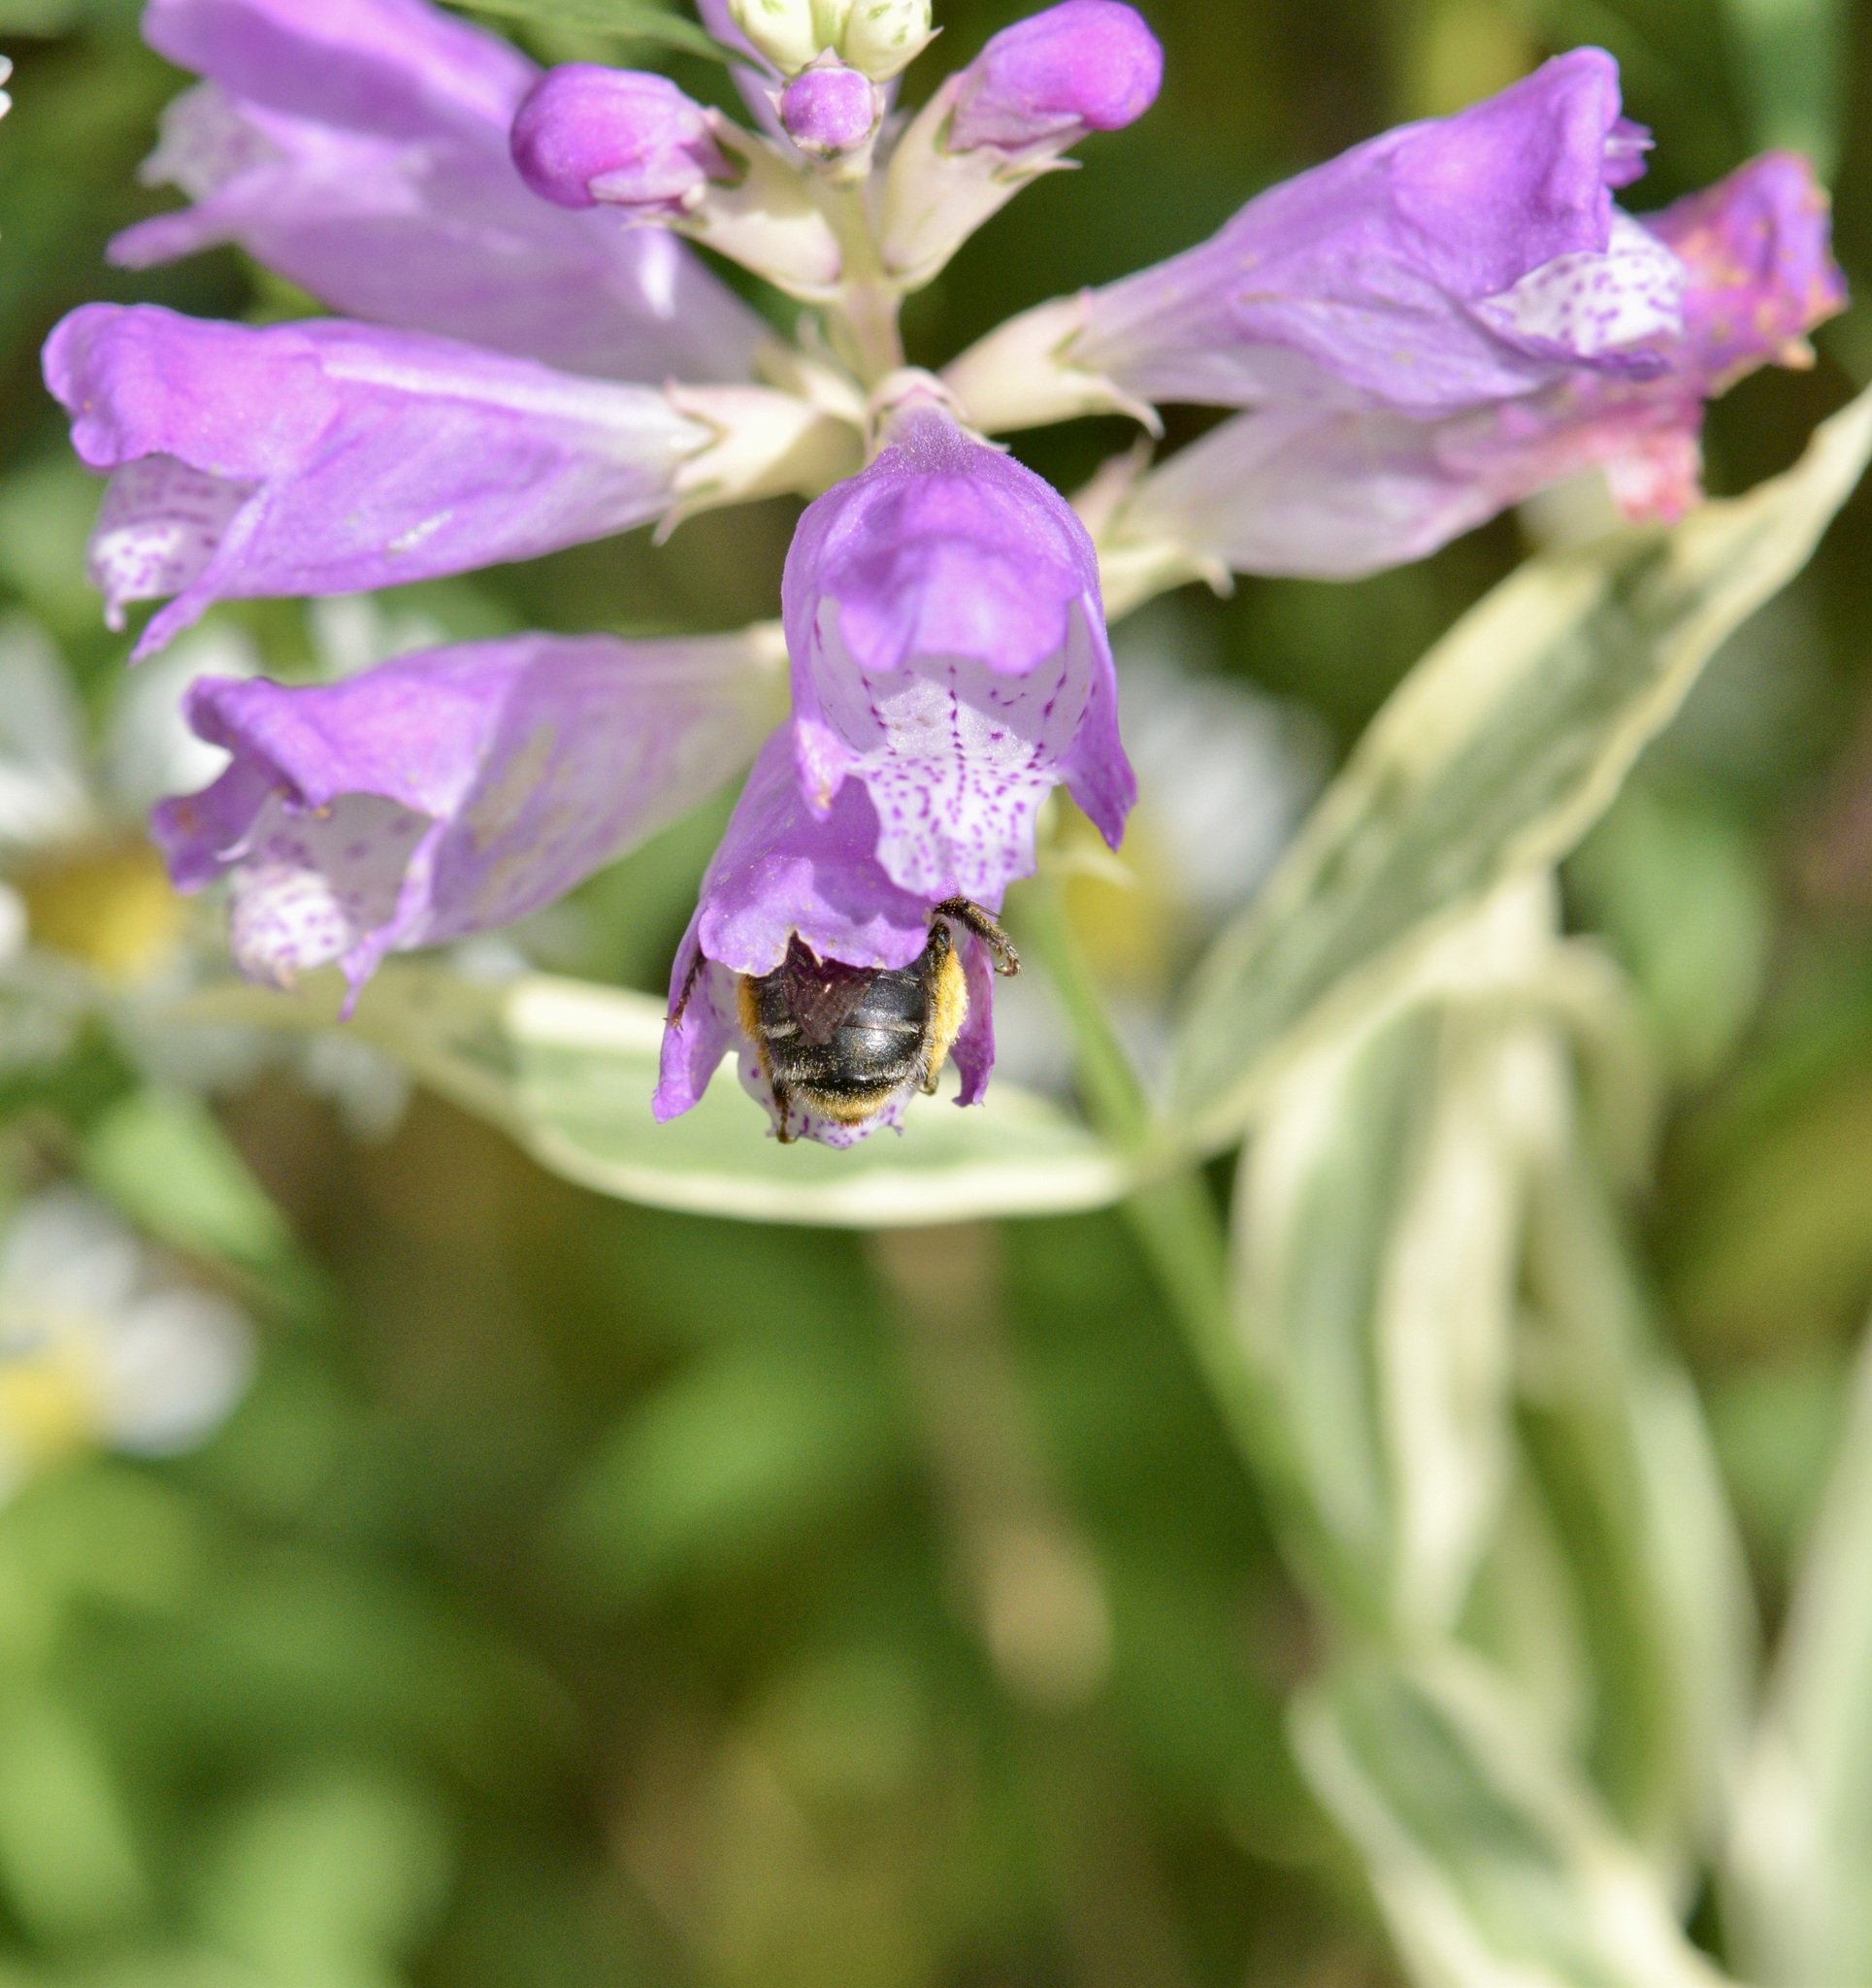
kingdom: Animalia
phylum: Arthropoda
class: Insecta
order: Hymenoptera
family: Apidae
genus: Anthophora
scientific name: Anthophora terminalis
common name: Orange-tipped wood-digger bee
